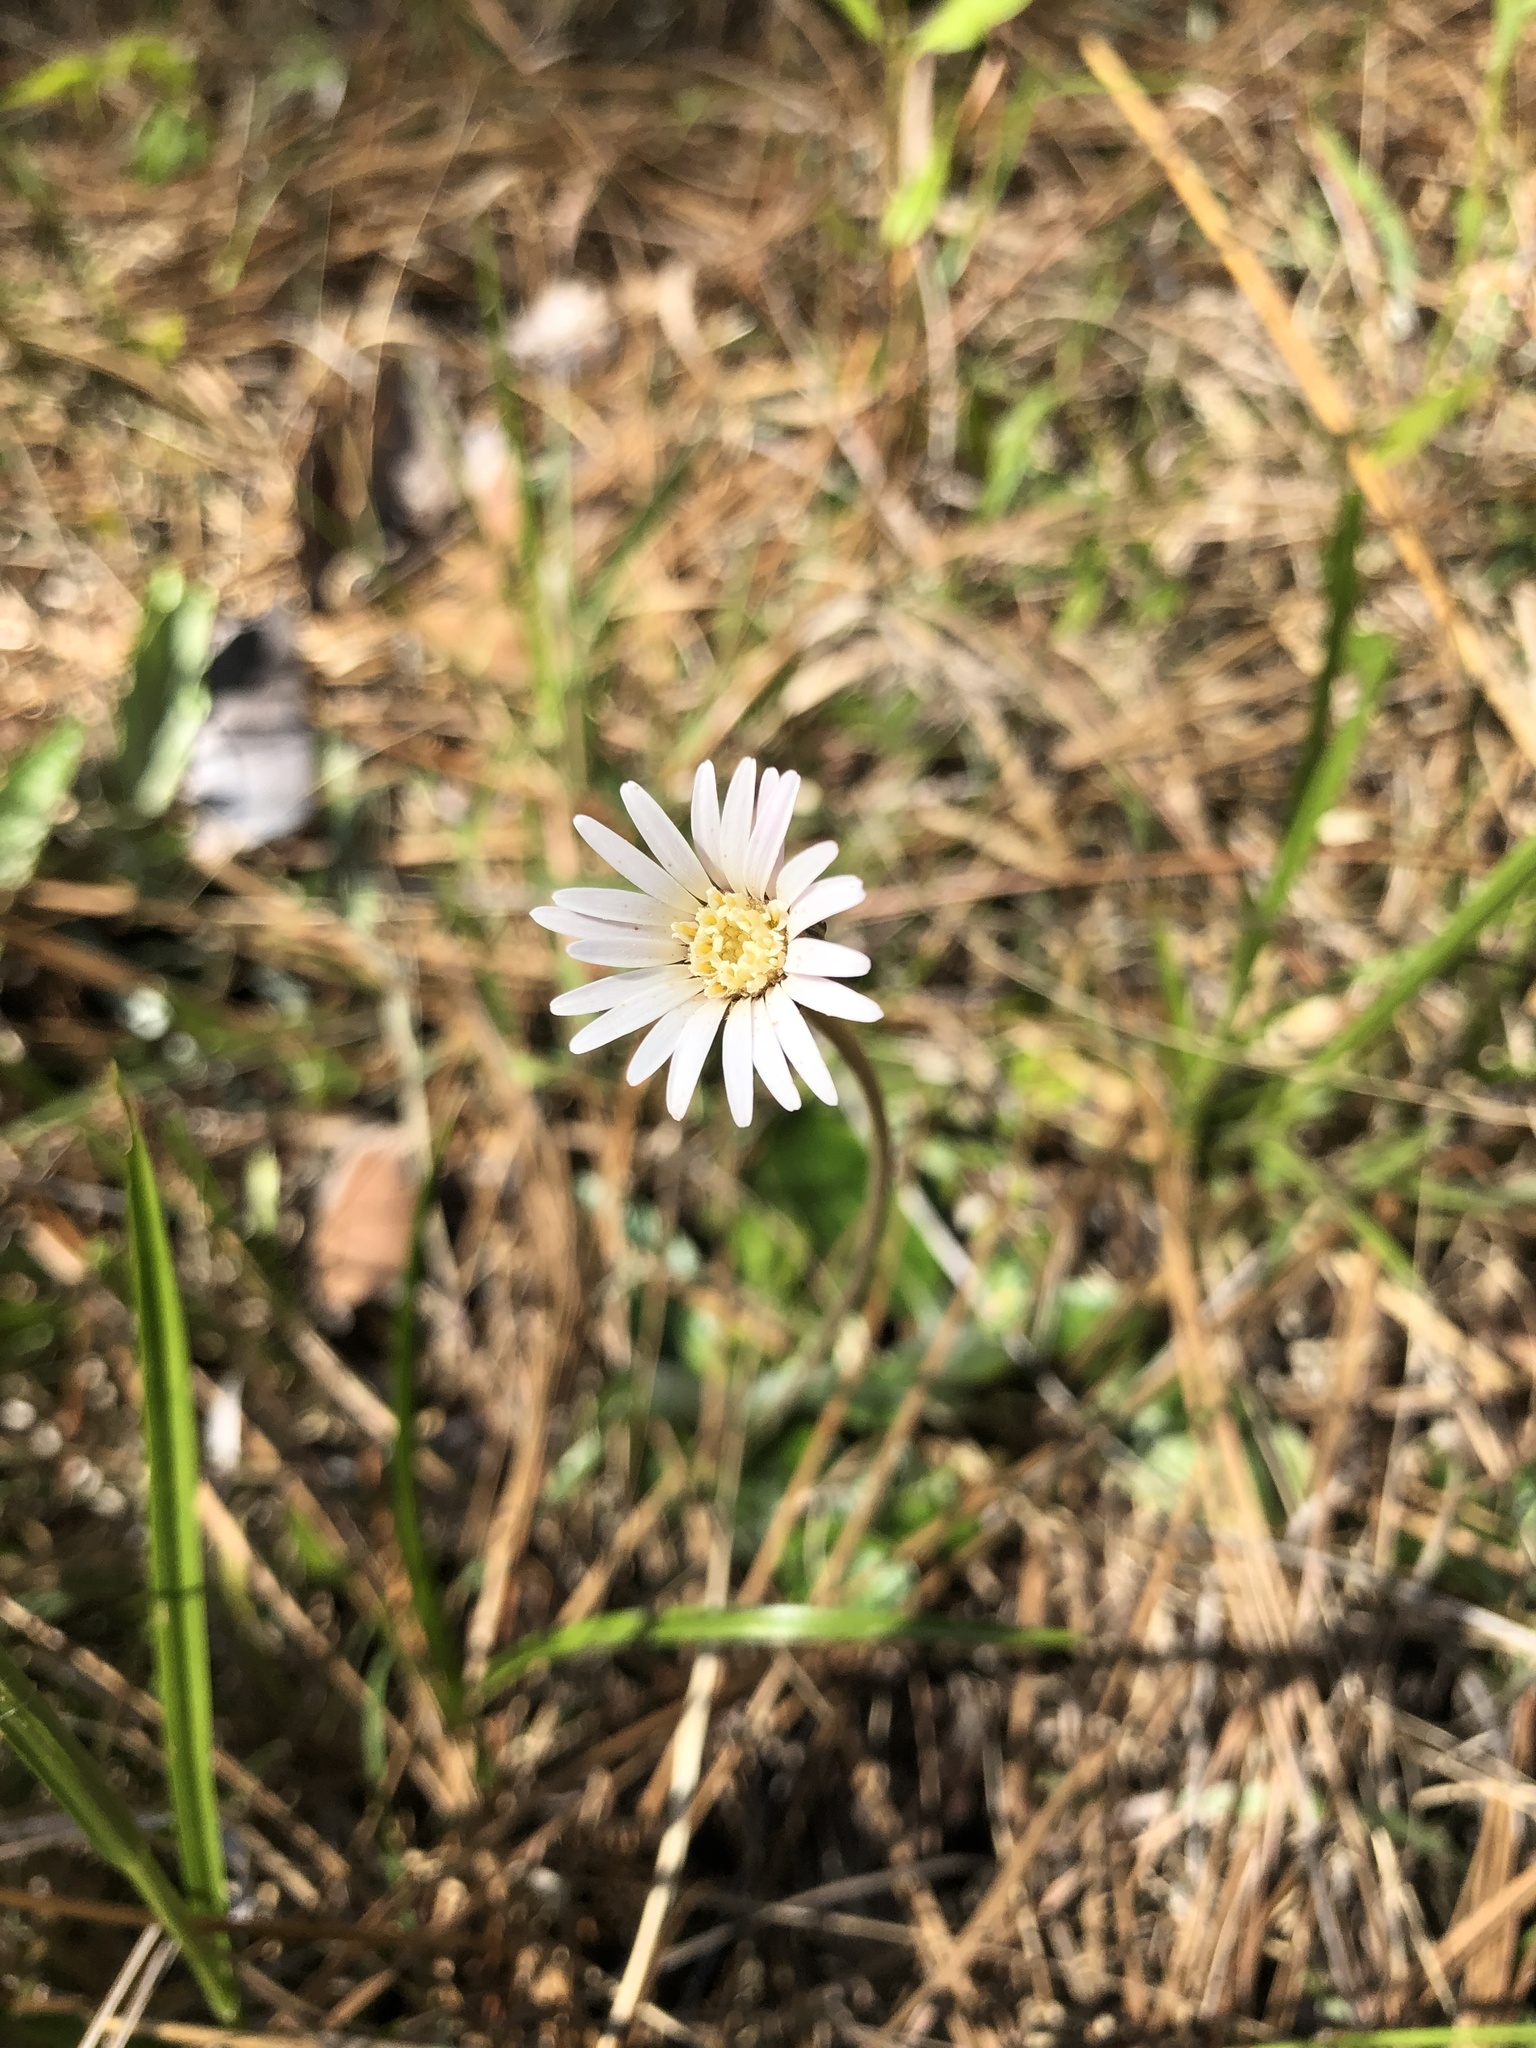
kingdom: Plantae
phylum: Tracheophyta
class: Magnoliopsida
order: Asterales
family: Asteraceae
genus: Chaptalia
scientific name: Chaptalia tomentosa
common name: Woolly sunbonnet
